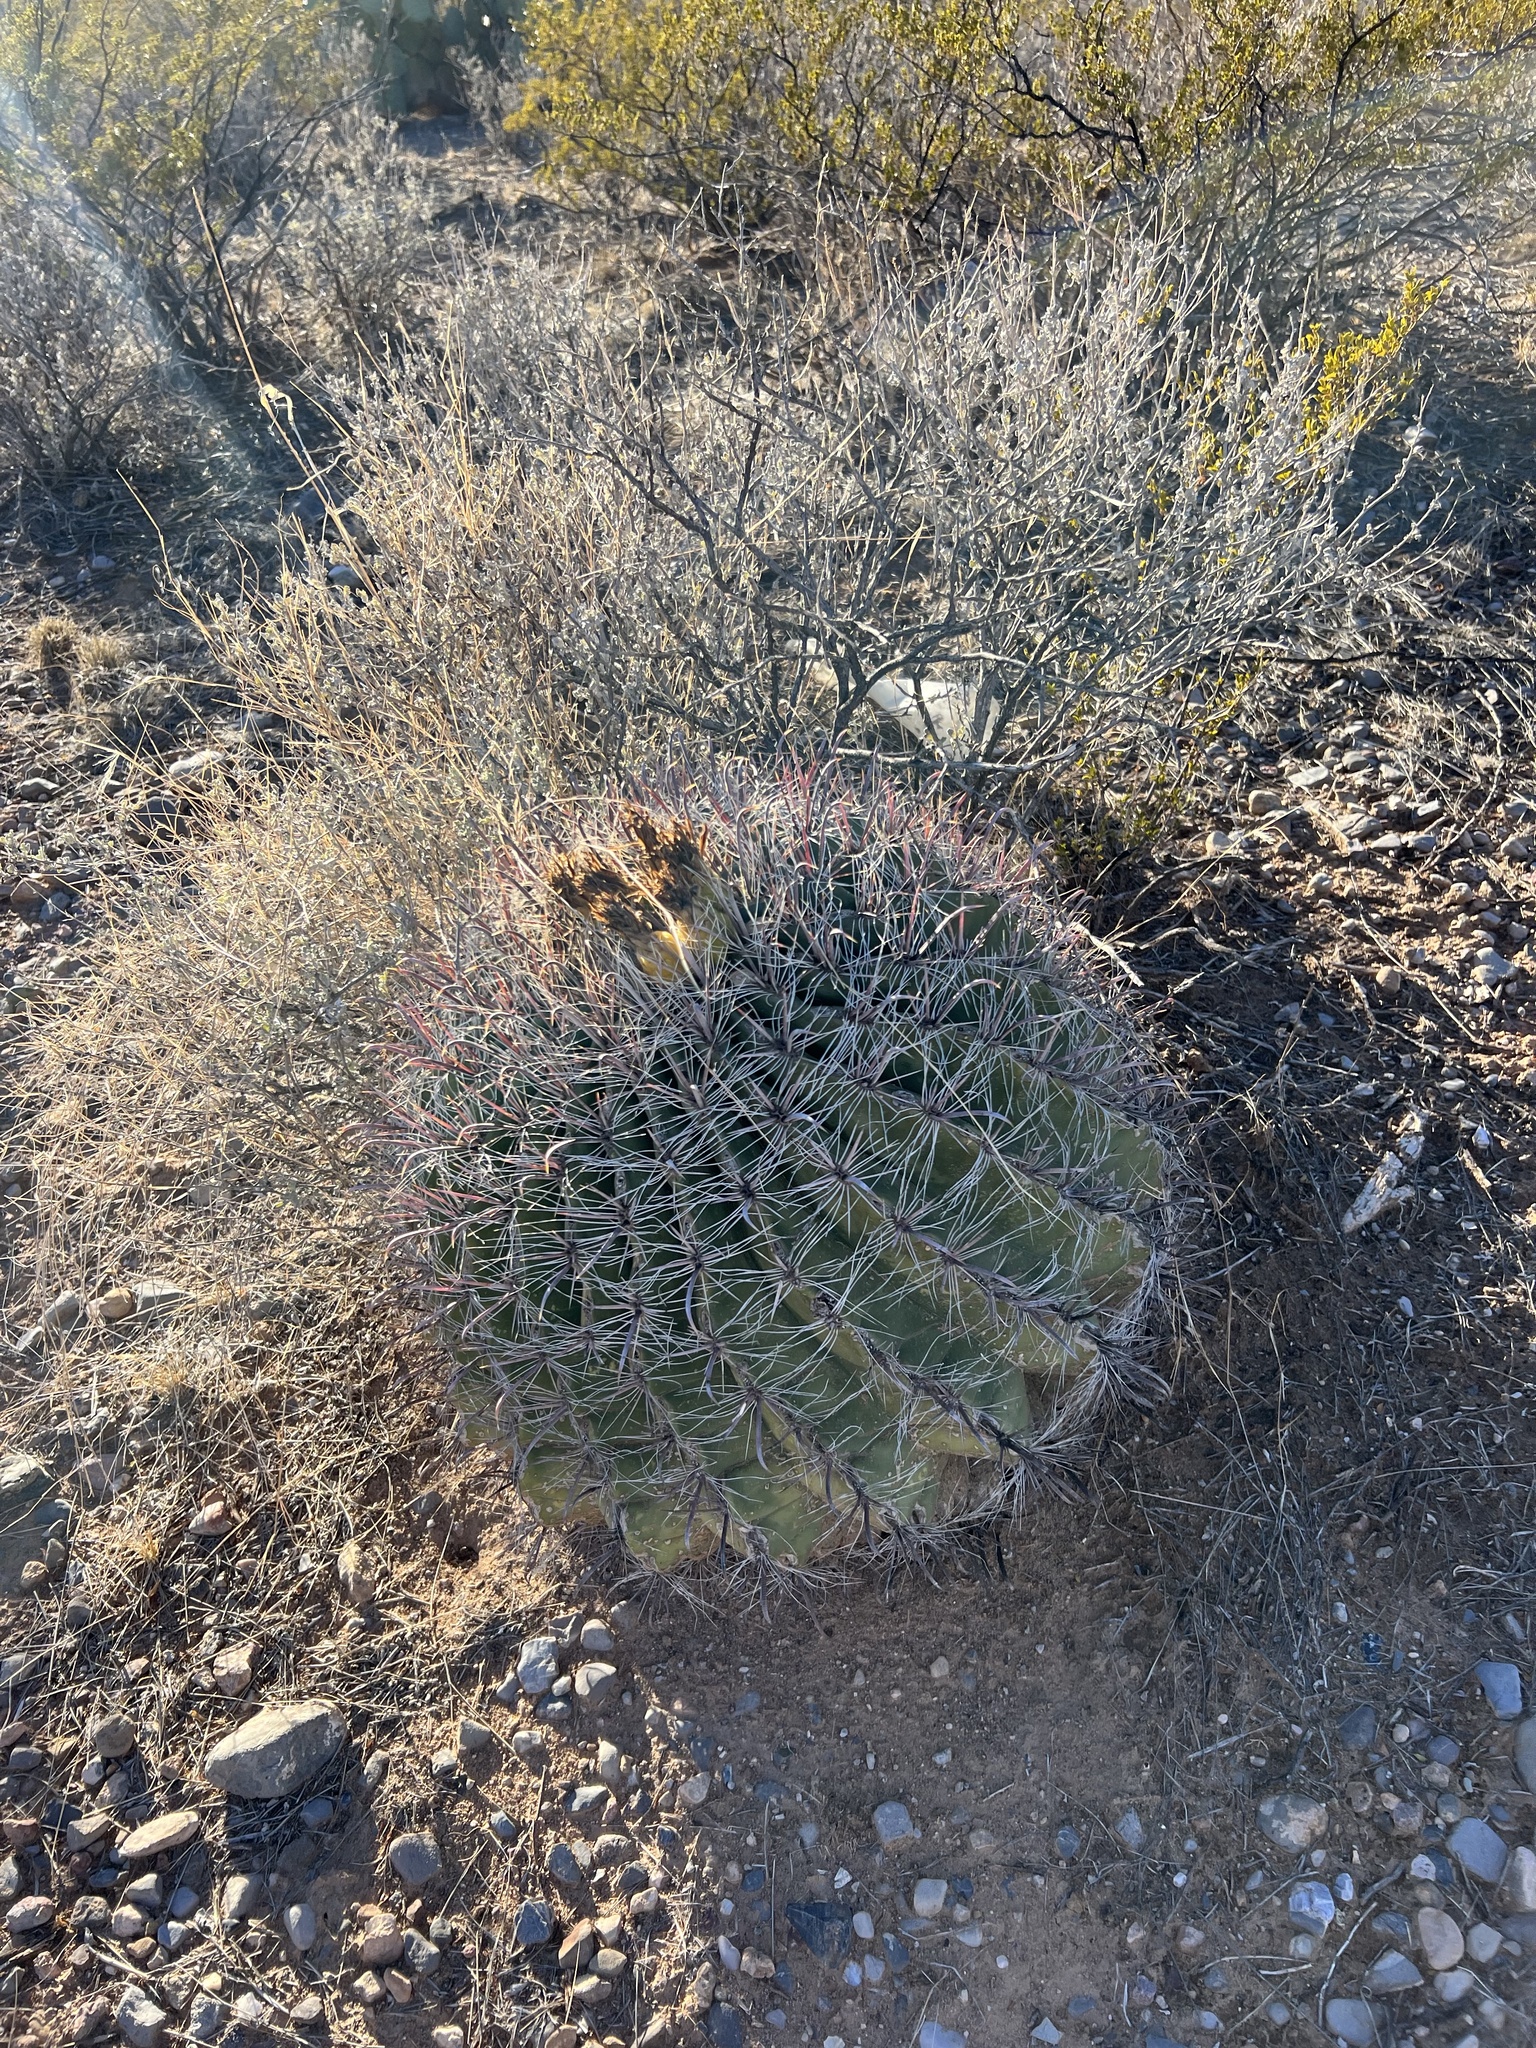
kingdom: Plantae
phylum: Tracheophyta
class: Magnoliopsida
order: Caryophyllales
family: Cactaceae
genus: Ferocactus
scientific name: Ferocactus wislizeni
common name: Candy barrel cactus
